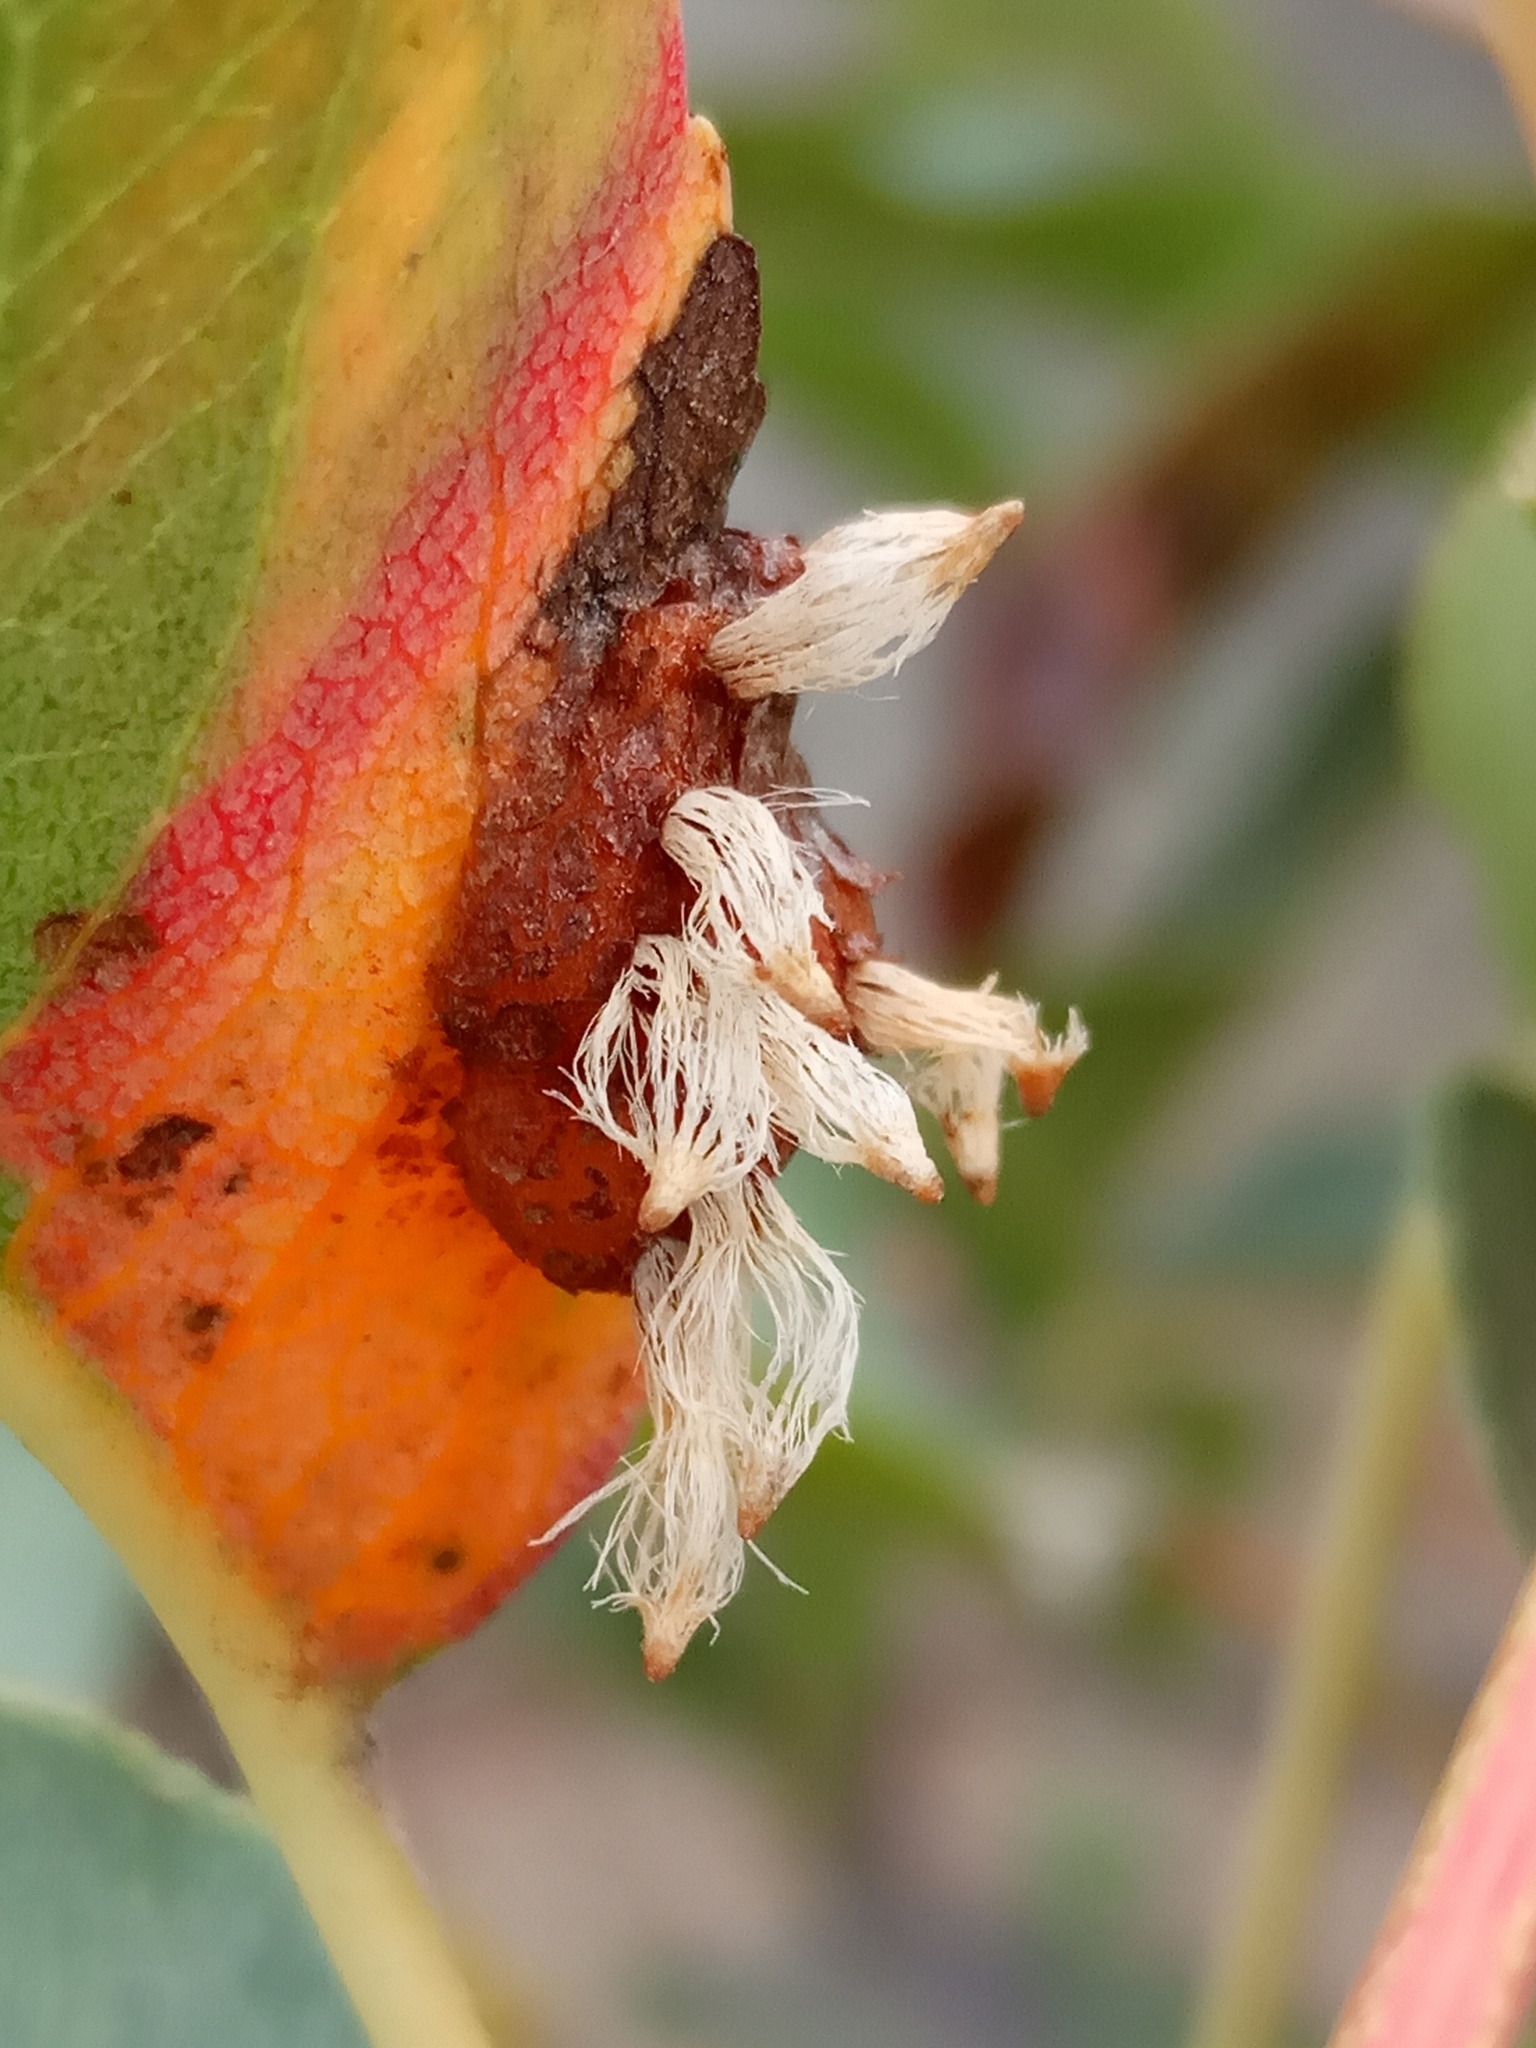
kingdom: Fungi
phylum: Basidiomycota
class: Pucciniomycetes
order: Pucciniales
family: Gymnosporangiaceae
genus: Gymnosporangium
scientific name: Gymnosporangium sabinae
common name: Pear trellis rust fungus
